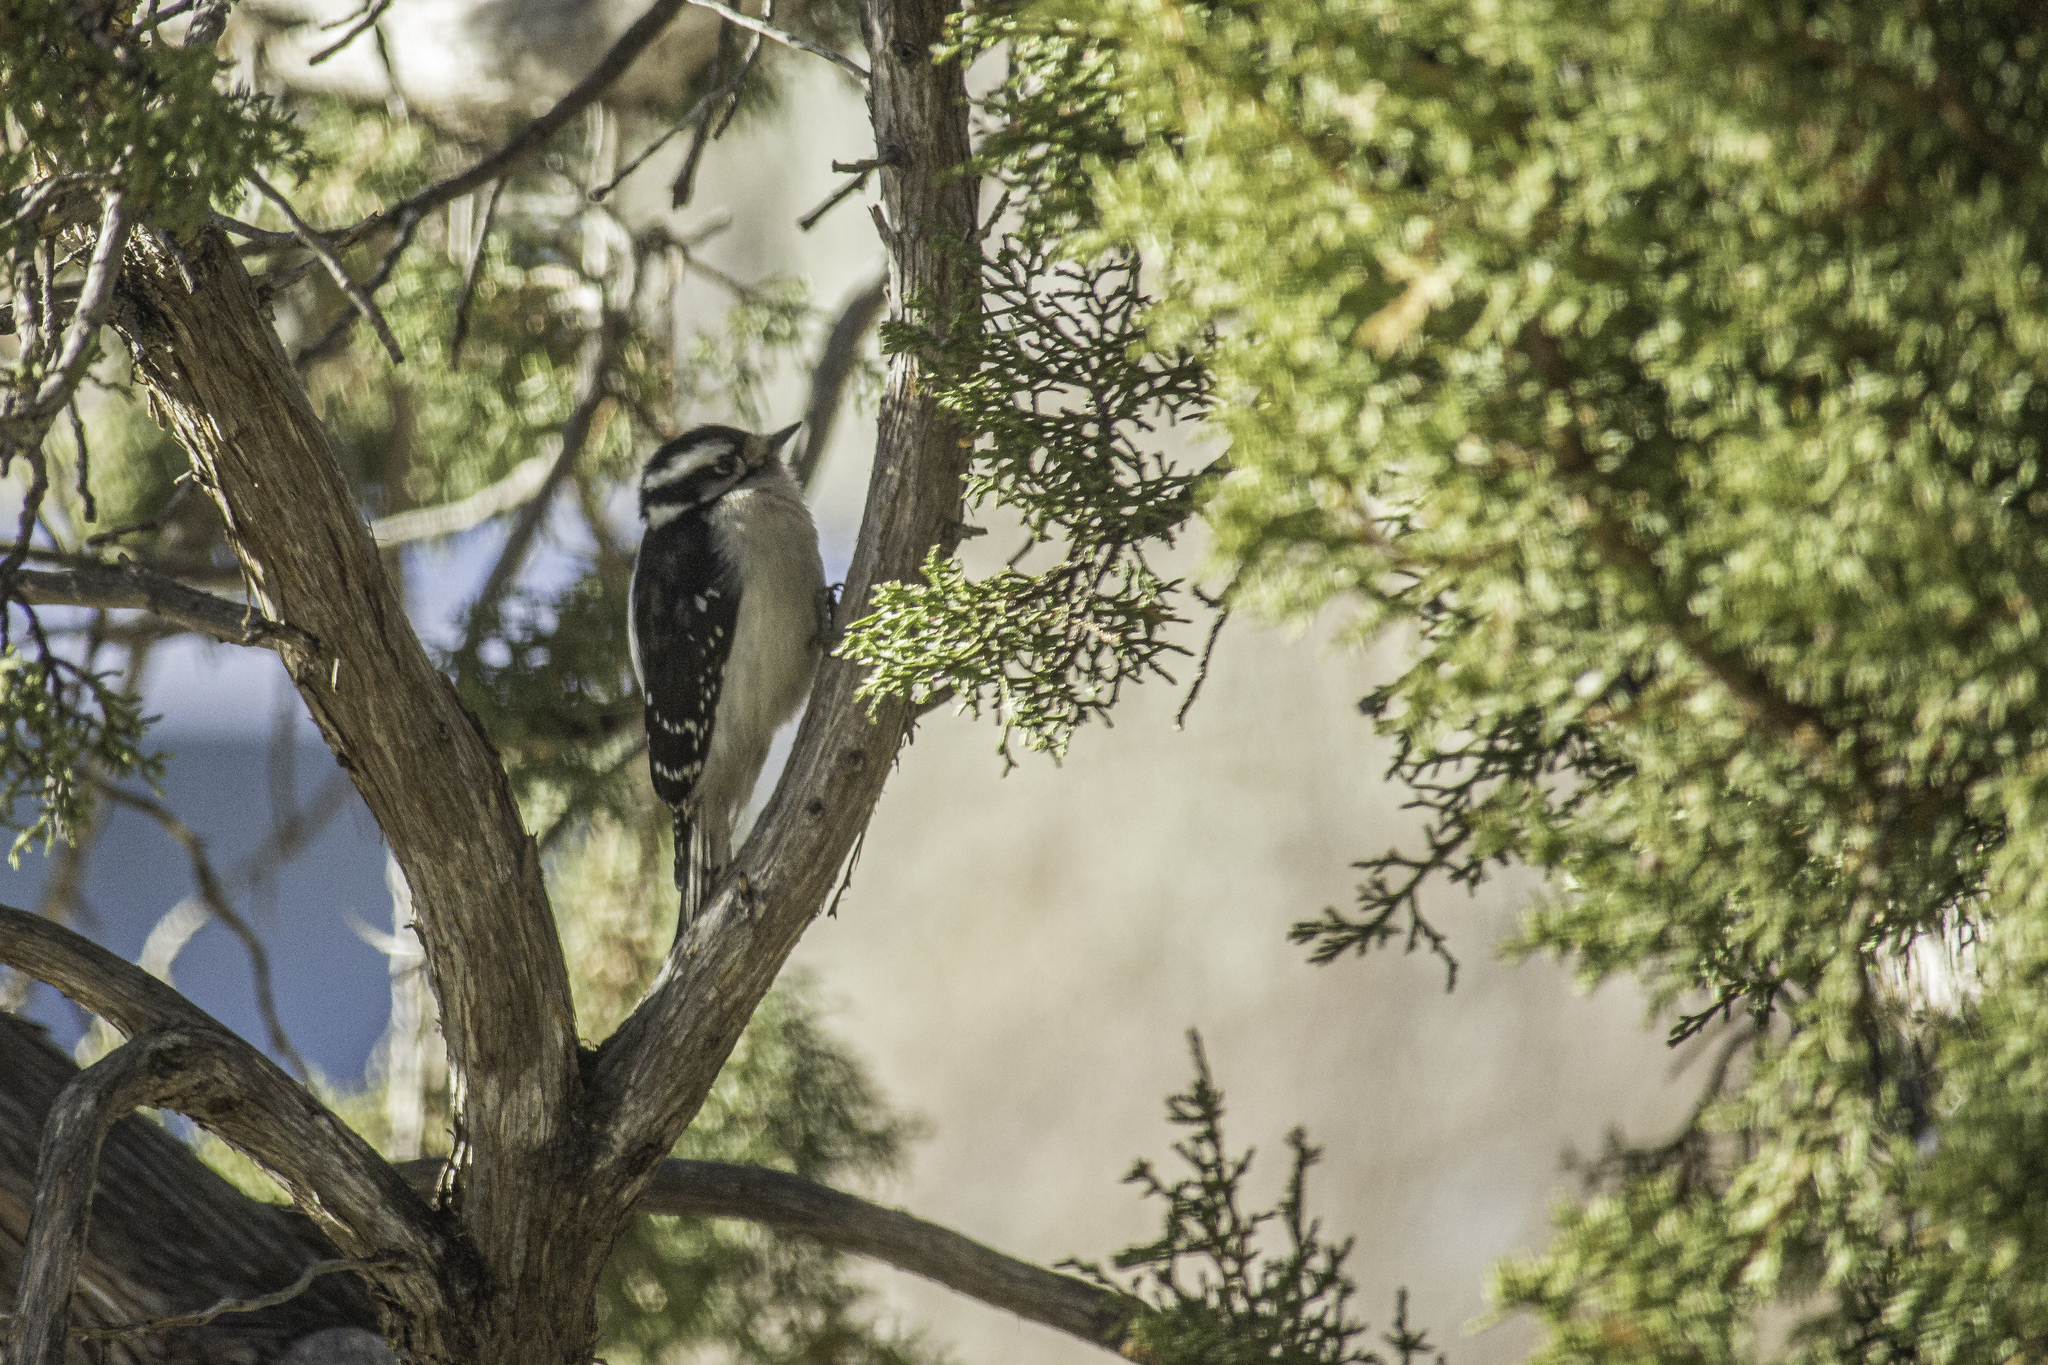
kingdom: Animalia
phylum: Chordata
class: Aves
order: Piciformes
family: Picidae
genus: Dryobates
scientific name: Dryobates pubescens
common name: Downy woodpecker
